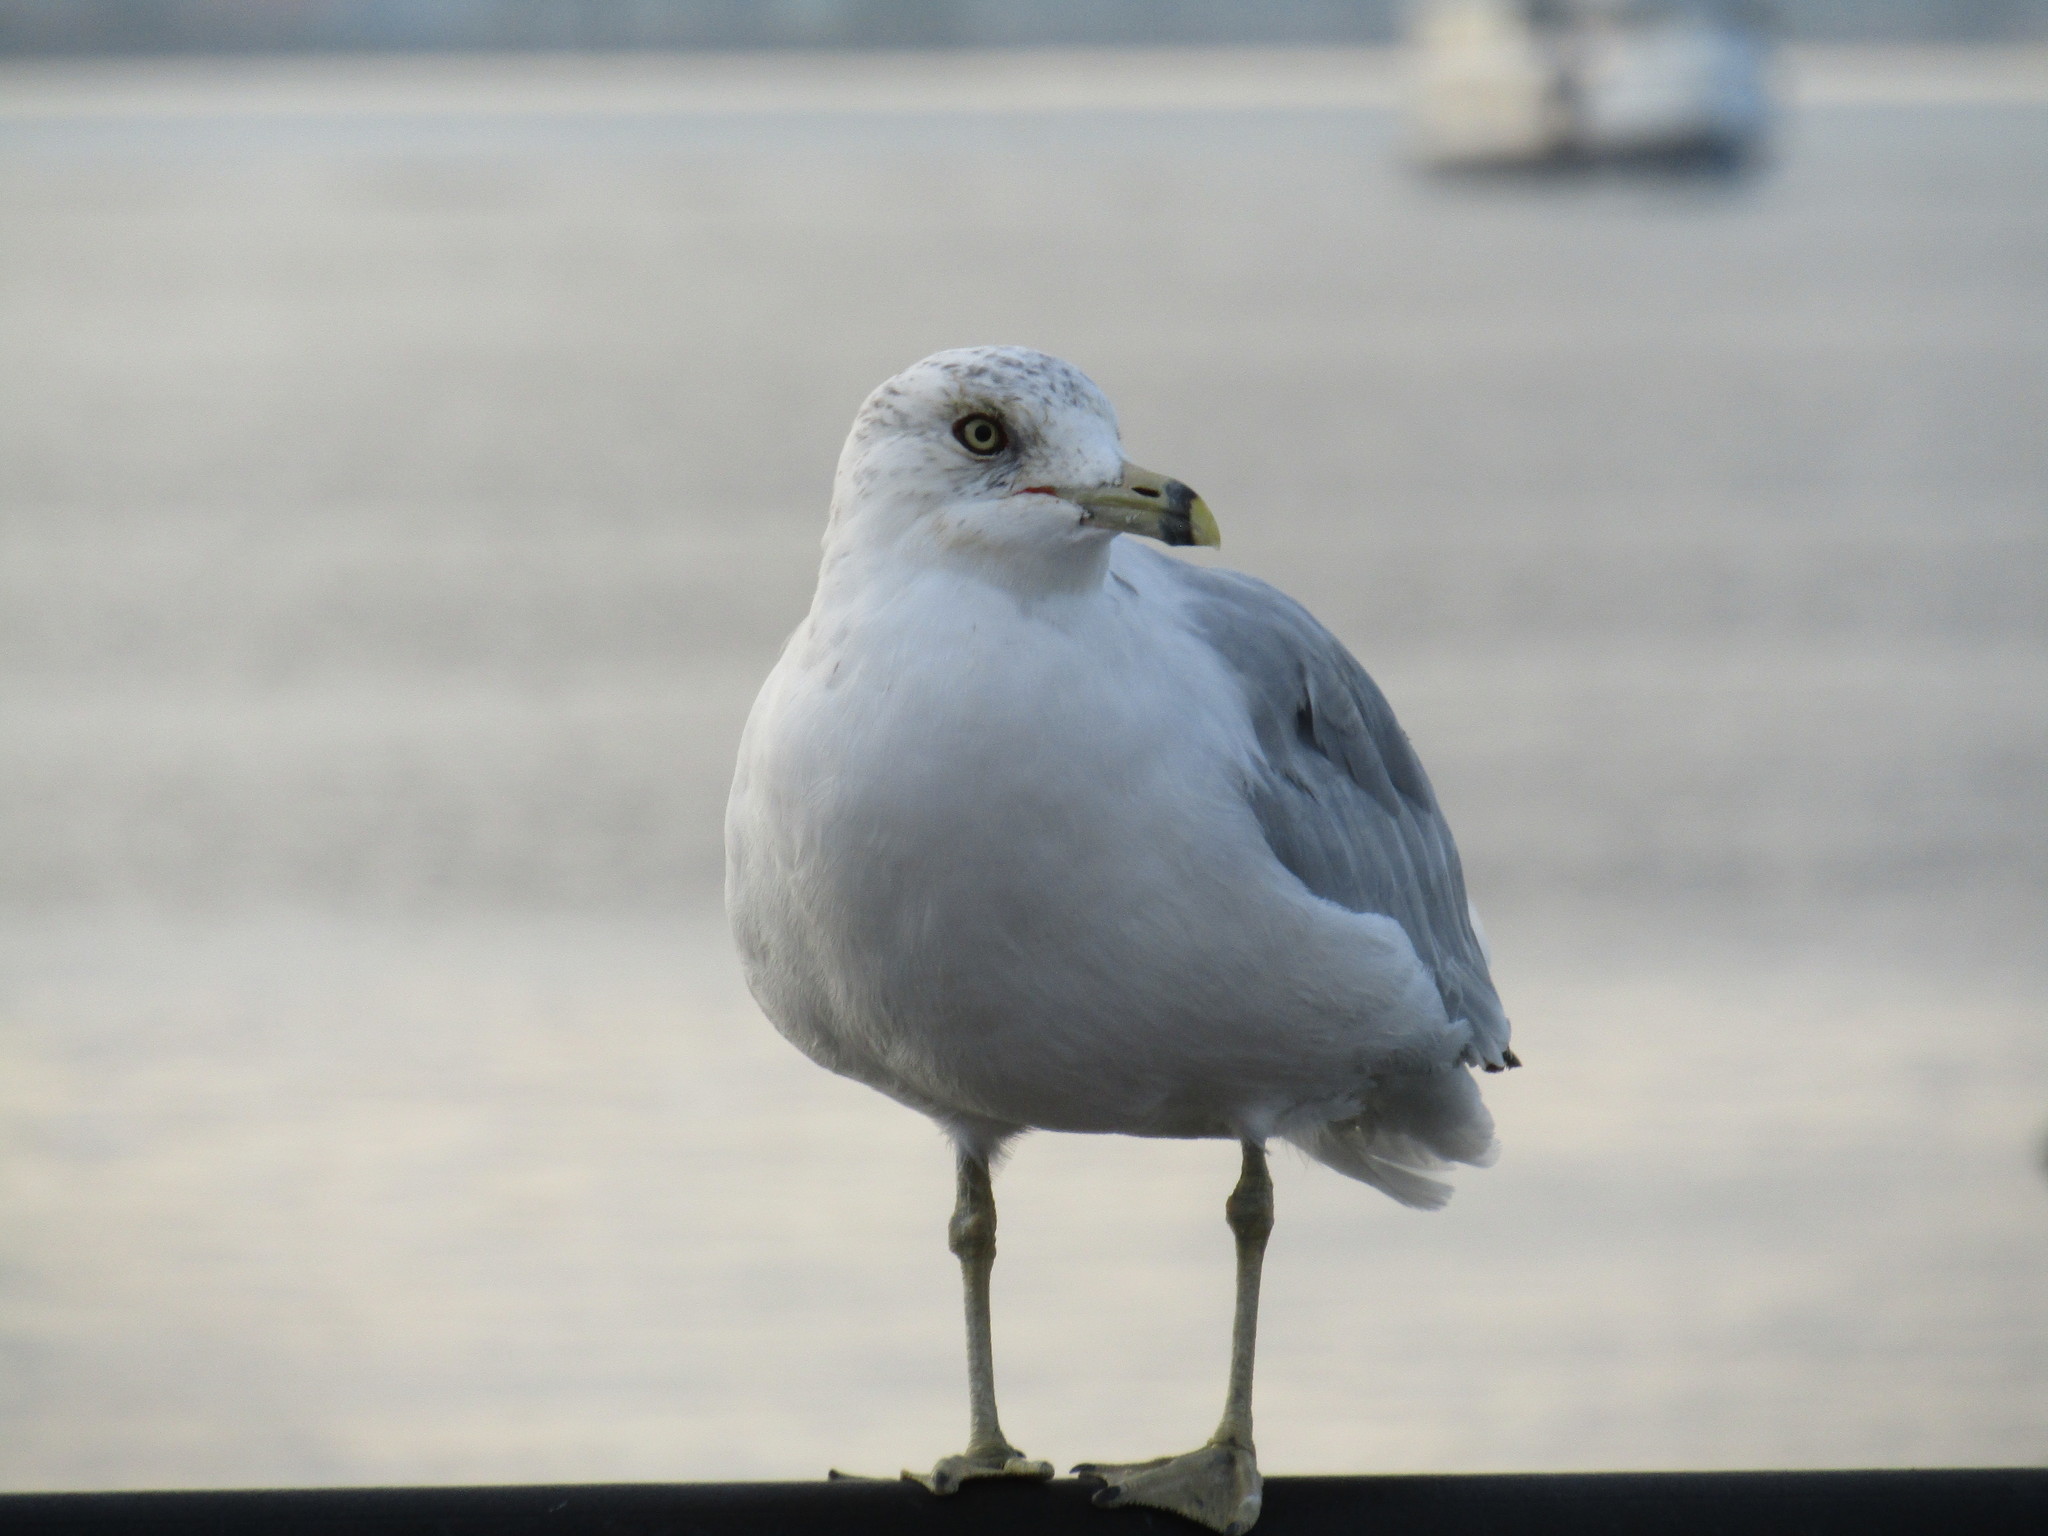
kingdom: Animalia
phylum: Chordata
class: Aves
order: Charadriiformes
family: Laridae
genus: Larus
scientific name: Larus delawarensis
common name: Ring-billed gull
